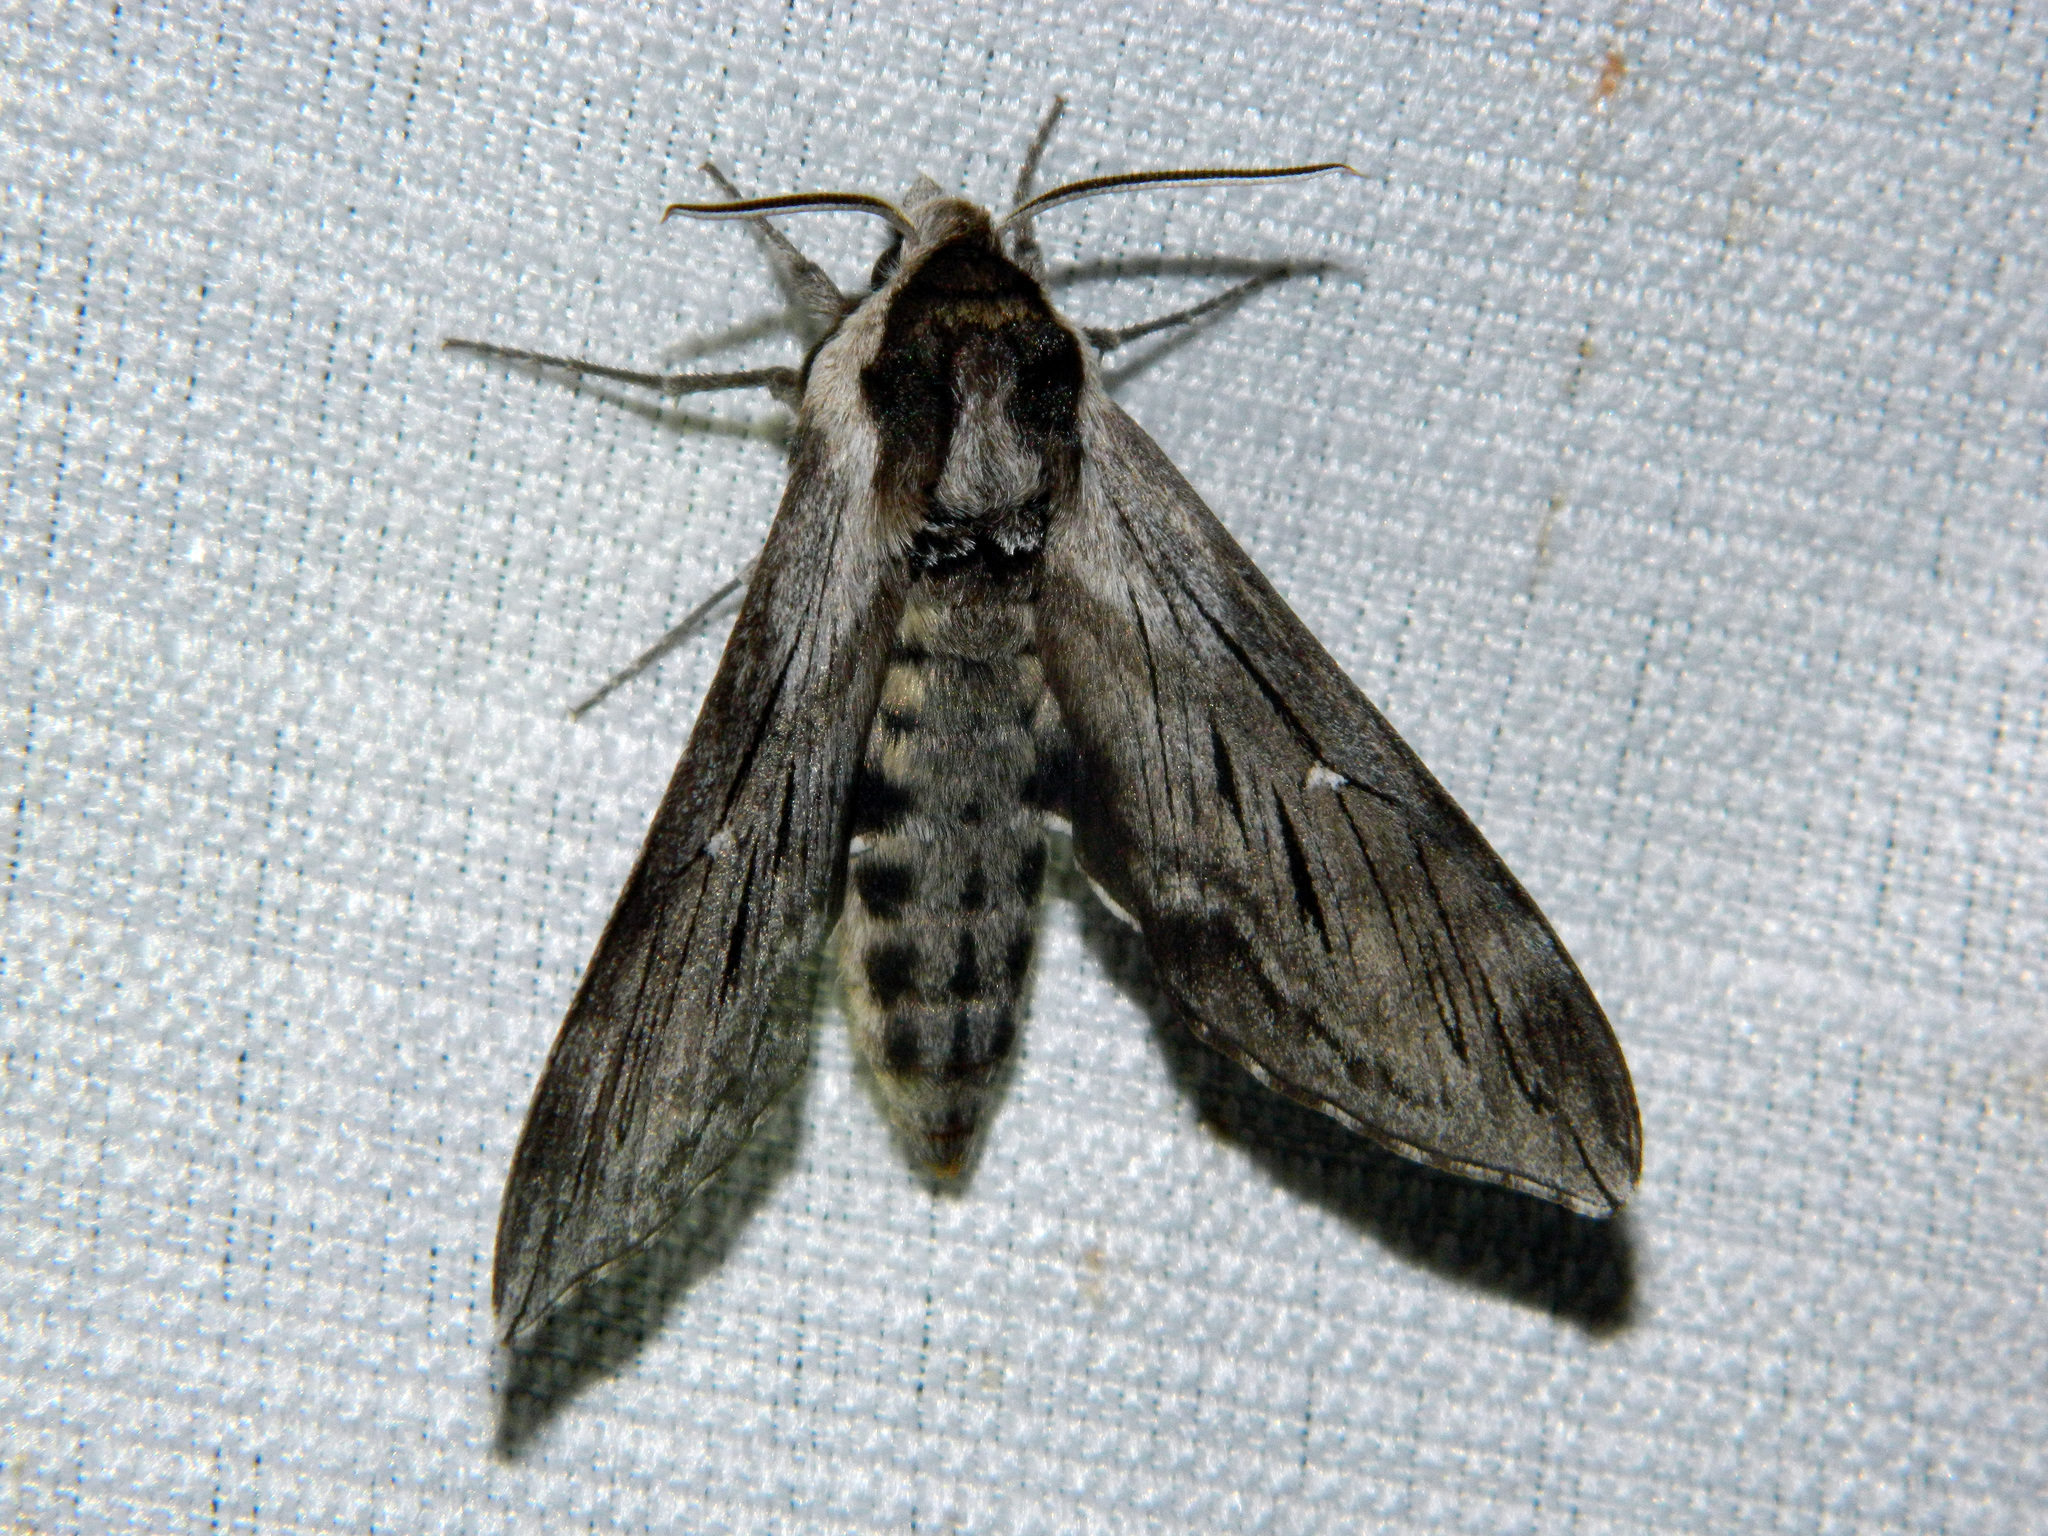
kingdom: Animalia
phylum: Arthropoda
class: Insecta
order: Lepidoptera
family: Sphingidae
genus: Sphinx
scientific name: Sphinx poecila
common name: Northern apple sphinx
